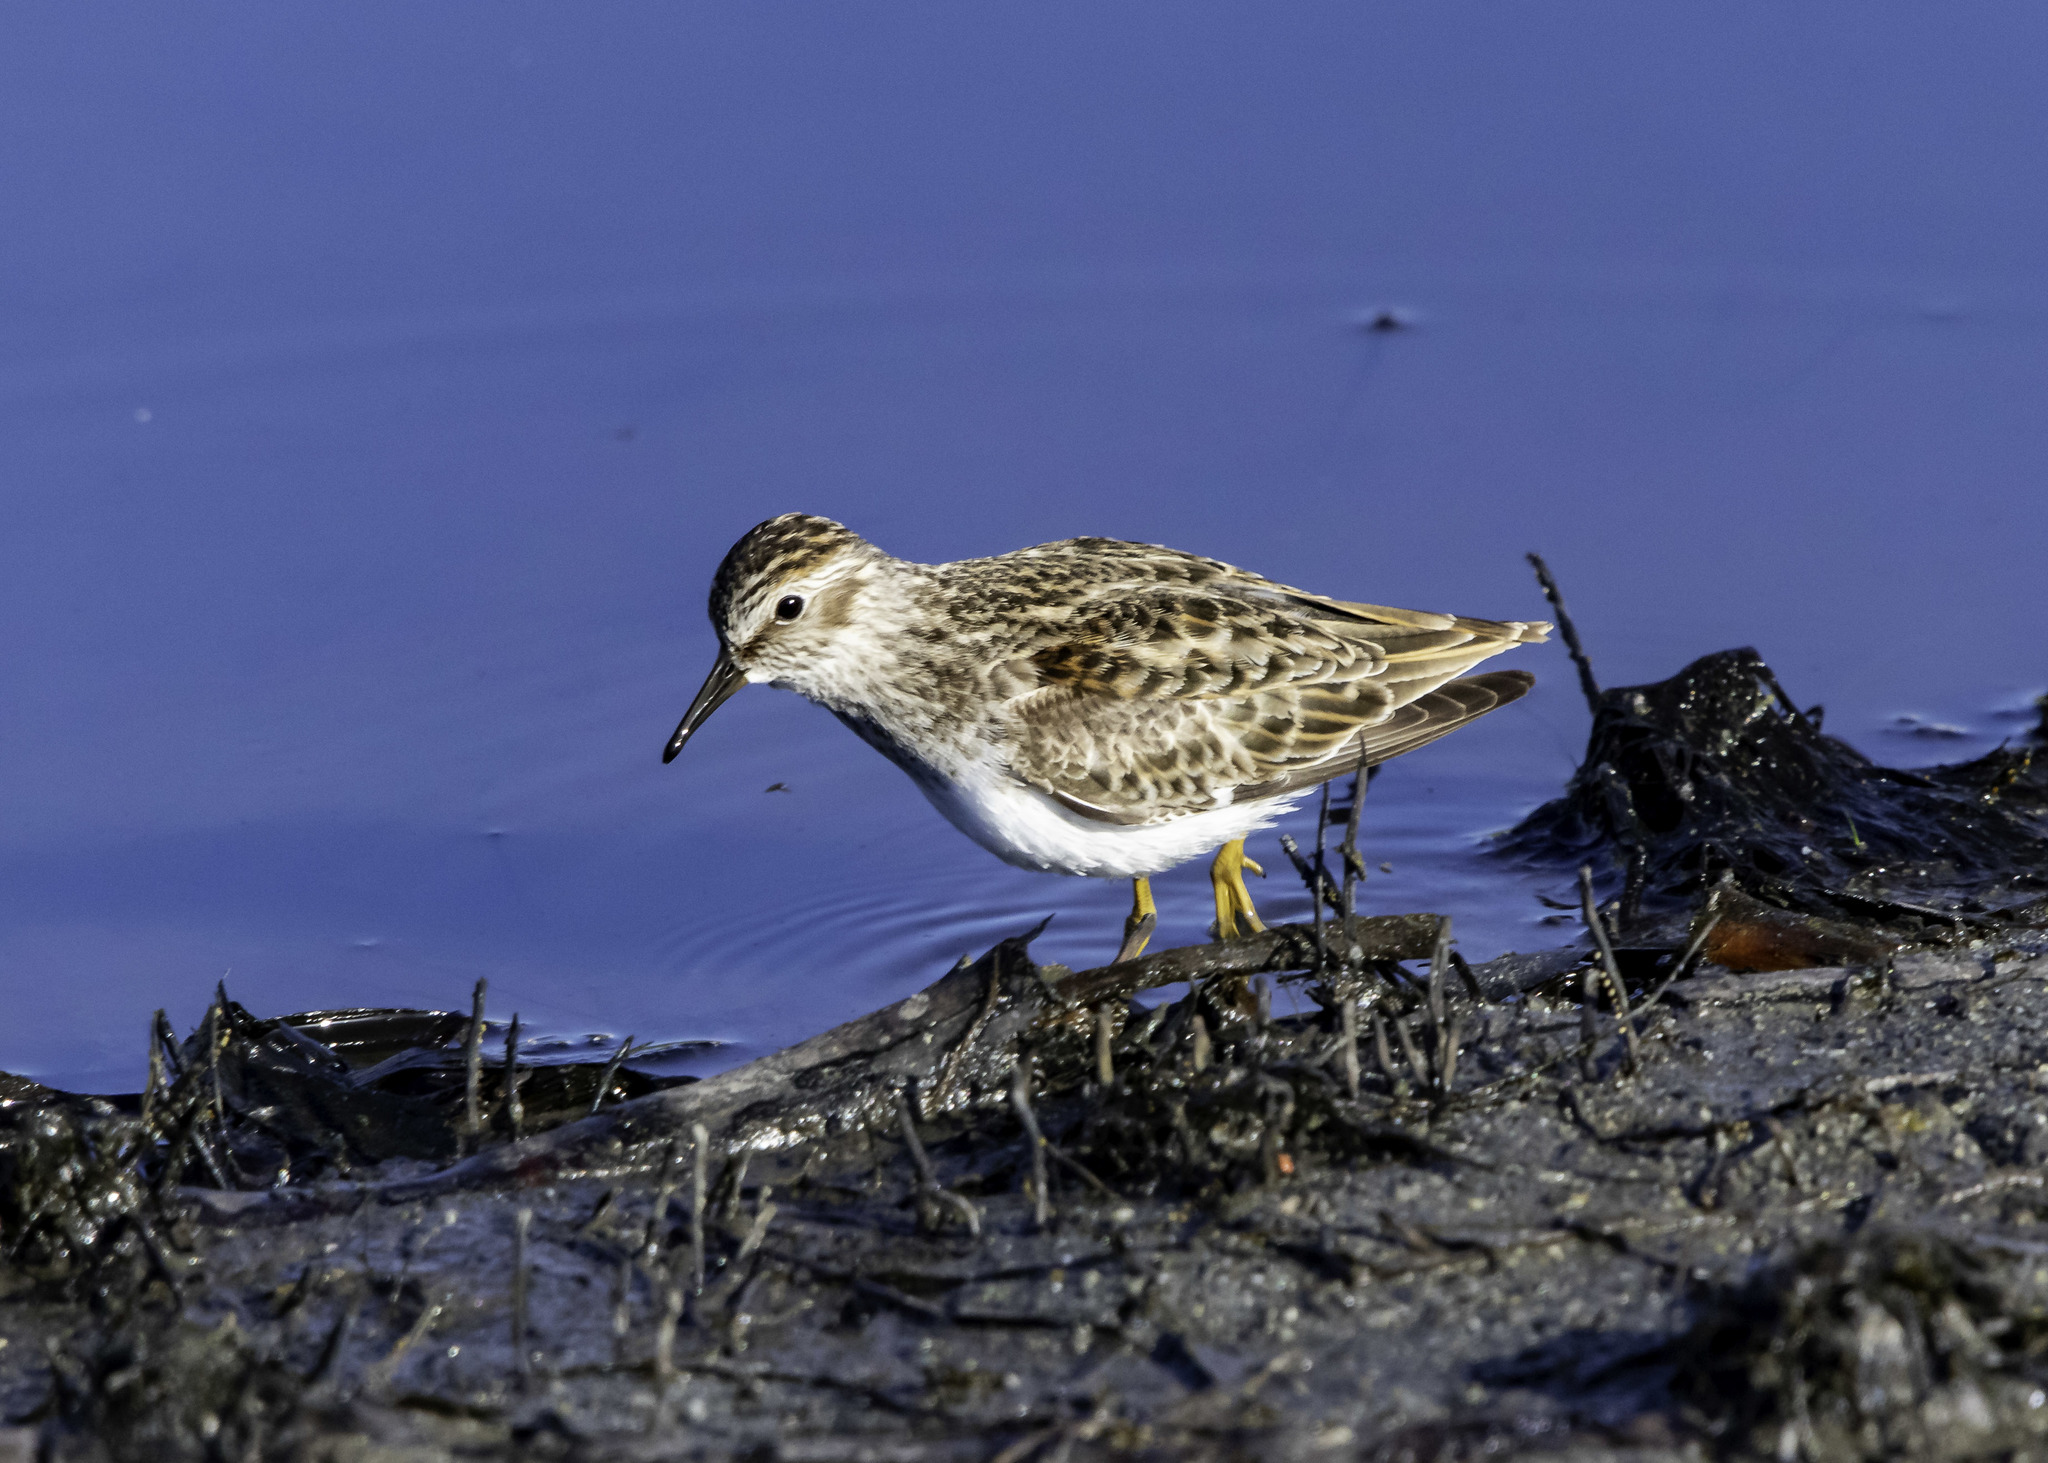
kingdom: Animalia
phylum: Chordata
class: Aves
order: Charadriiformes
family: Scolopacidae
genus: Calidris
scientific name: Calidris minutilla
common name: Least sandpiper
